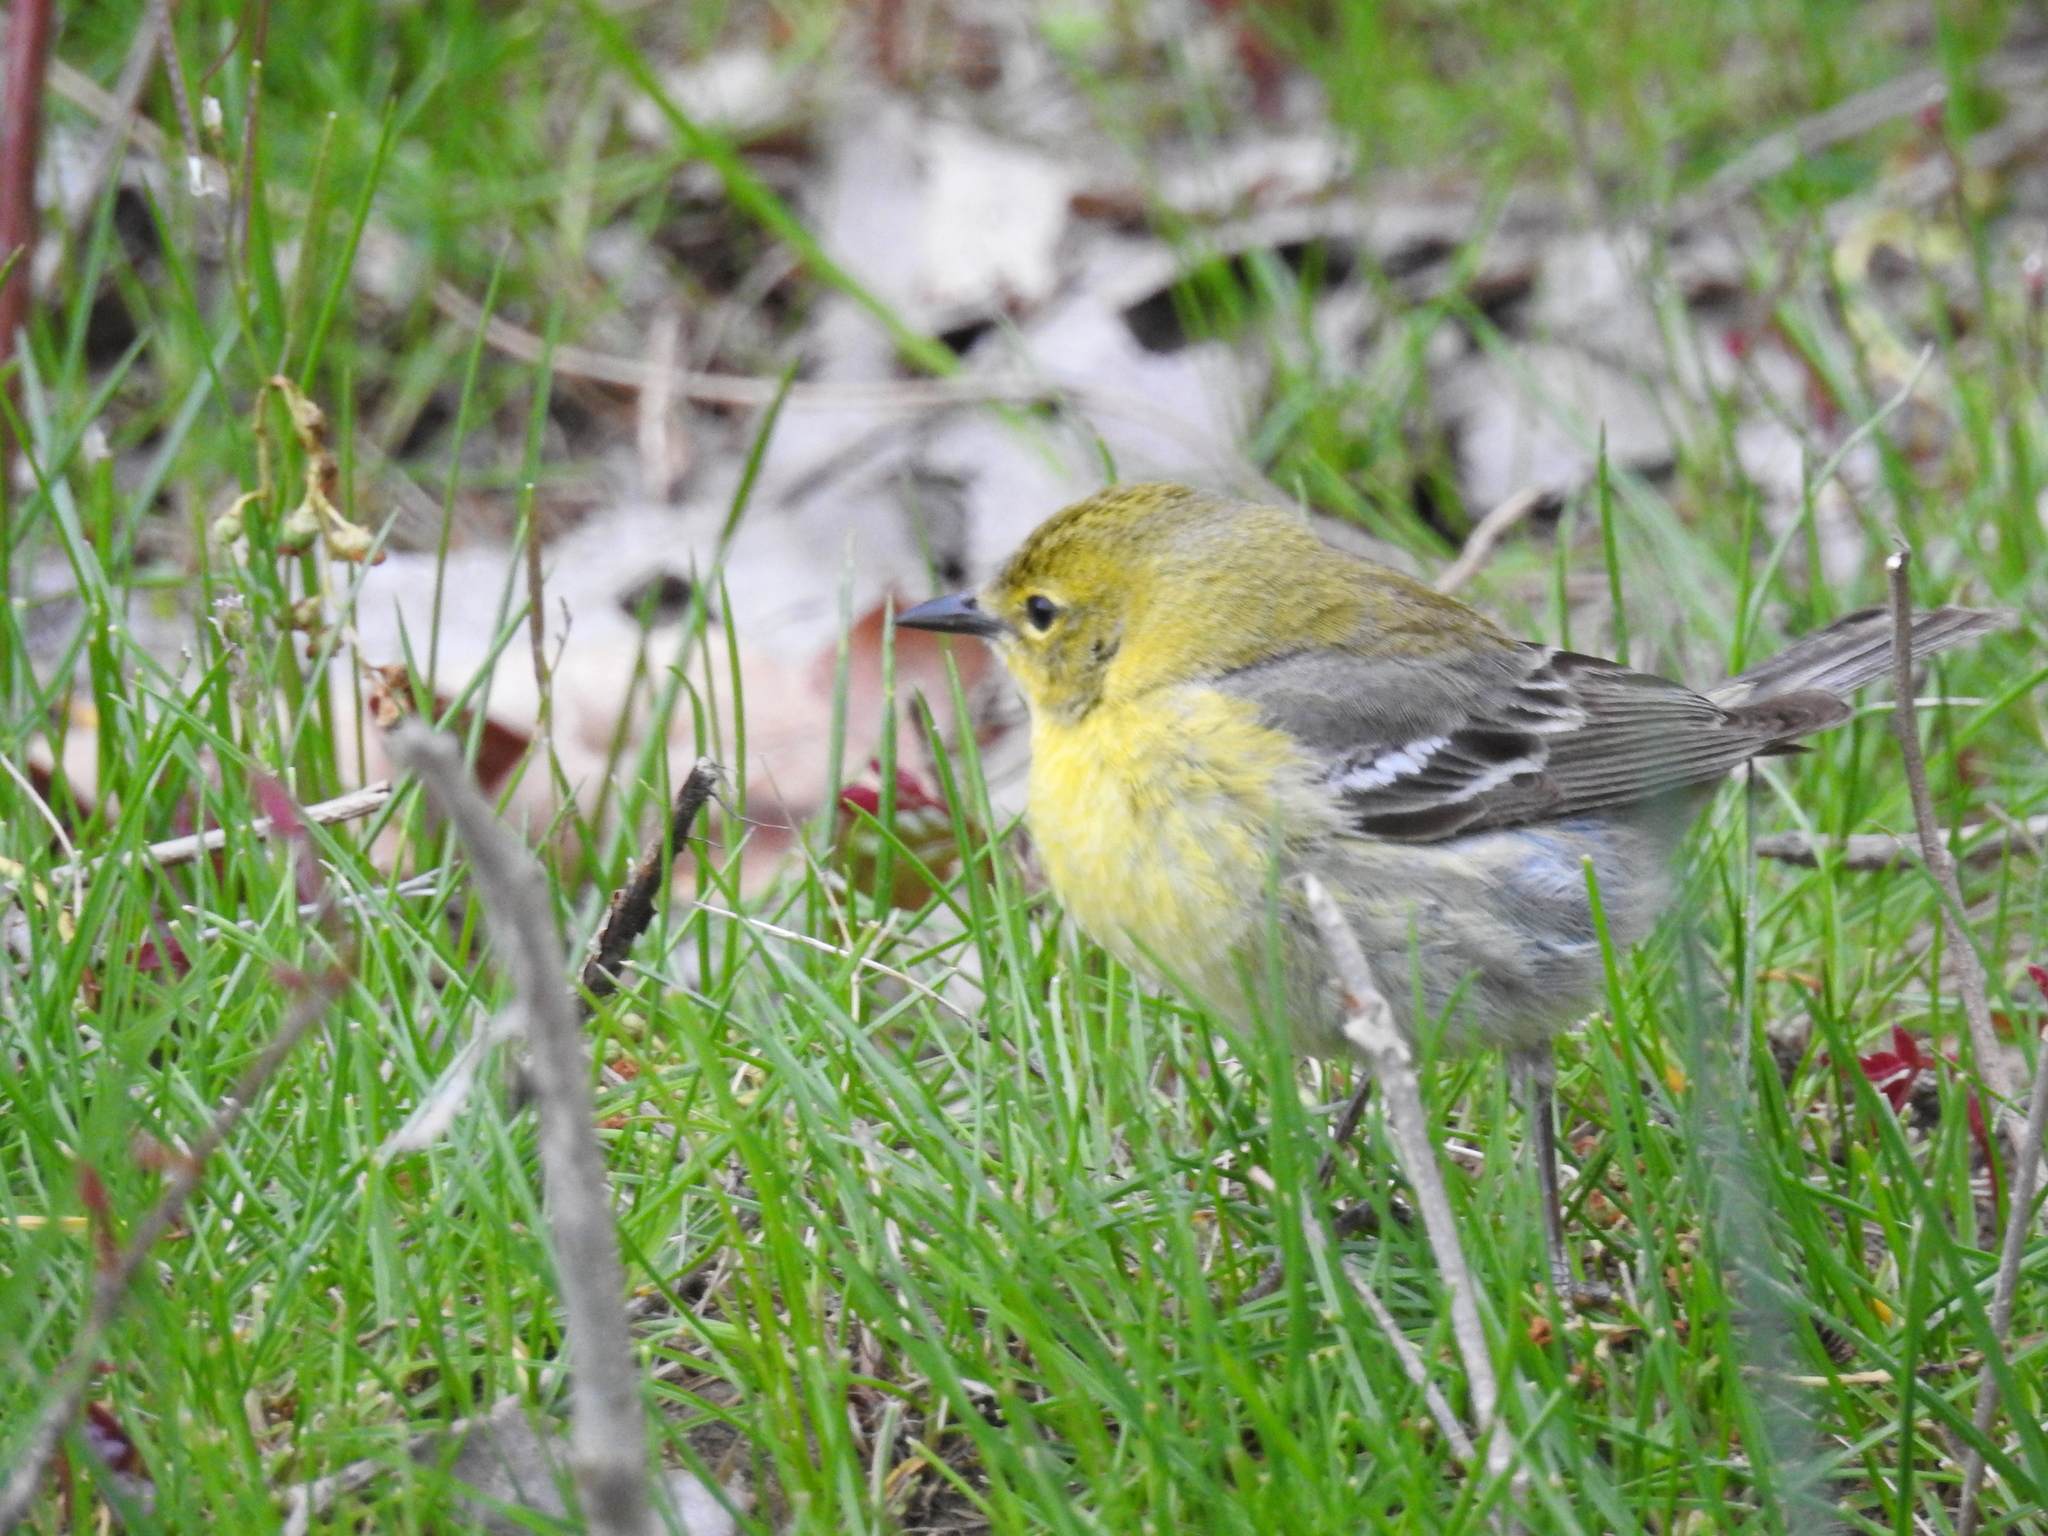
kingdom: Animalia
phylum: Chordata
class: Aves
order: Passeriformes
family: Parulidae
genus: Setophaga
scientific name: Setophaga pinus
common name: Pine warbler
